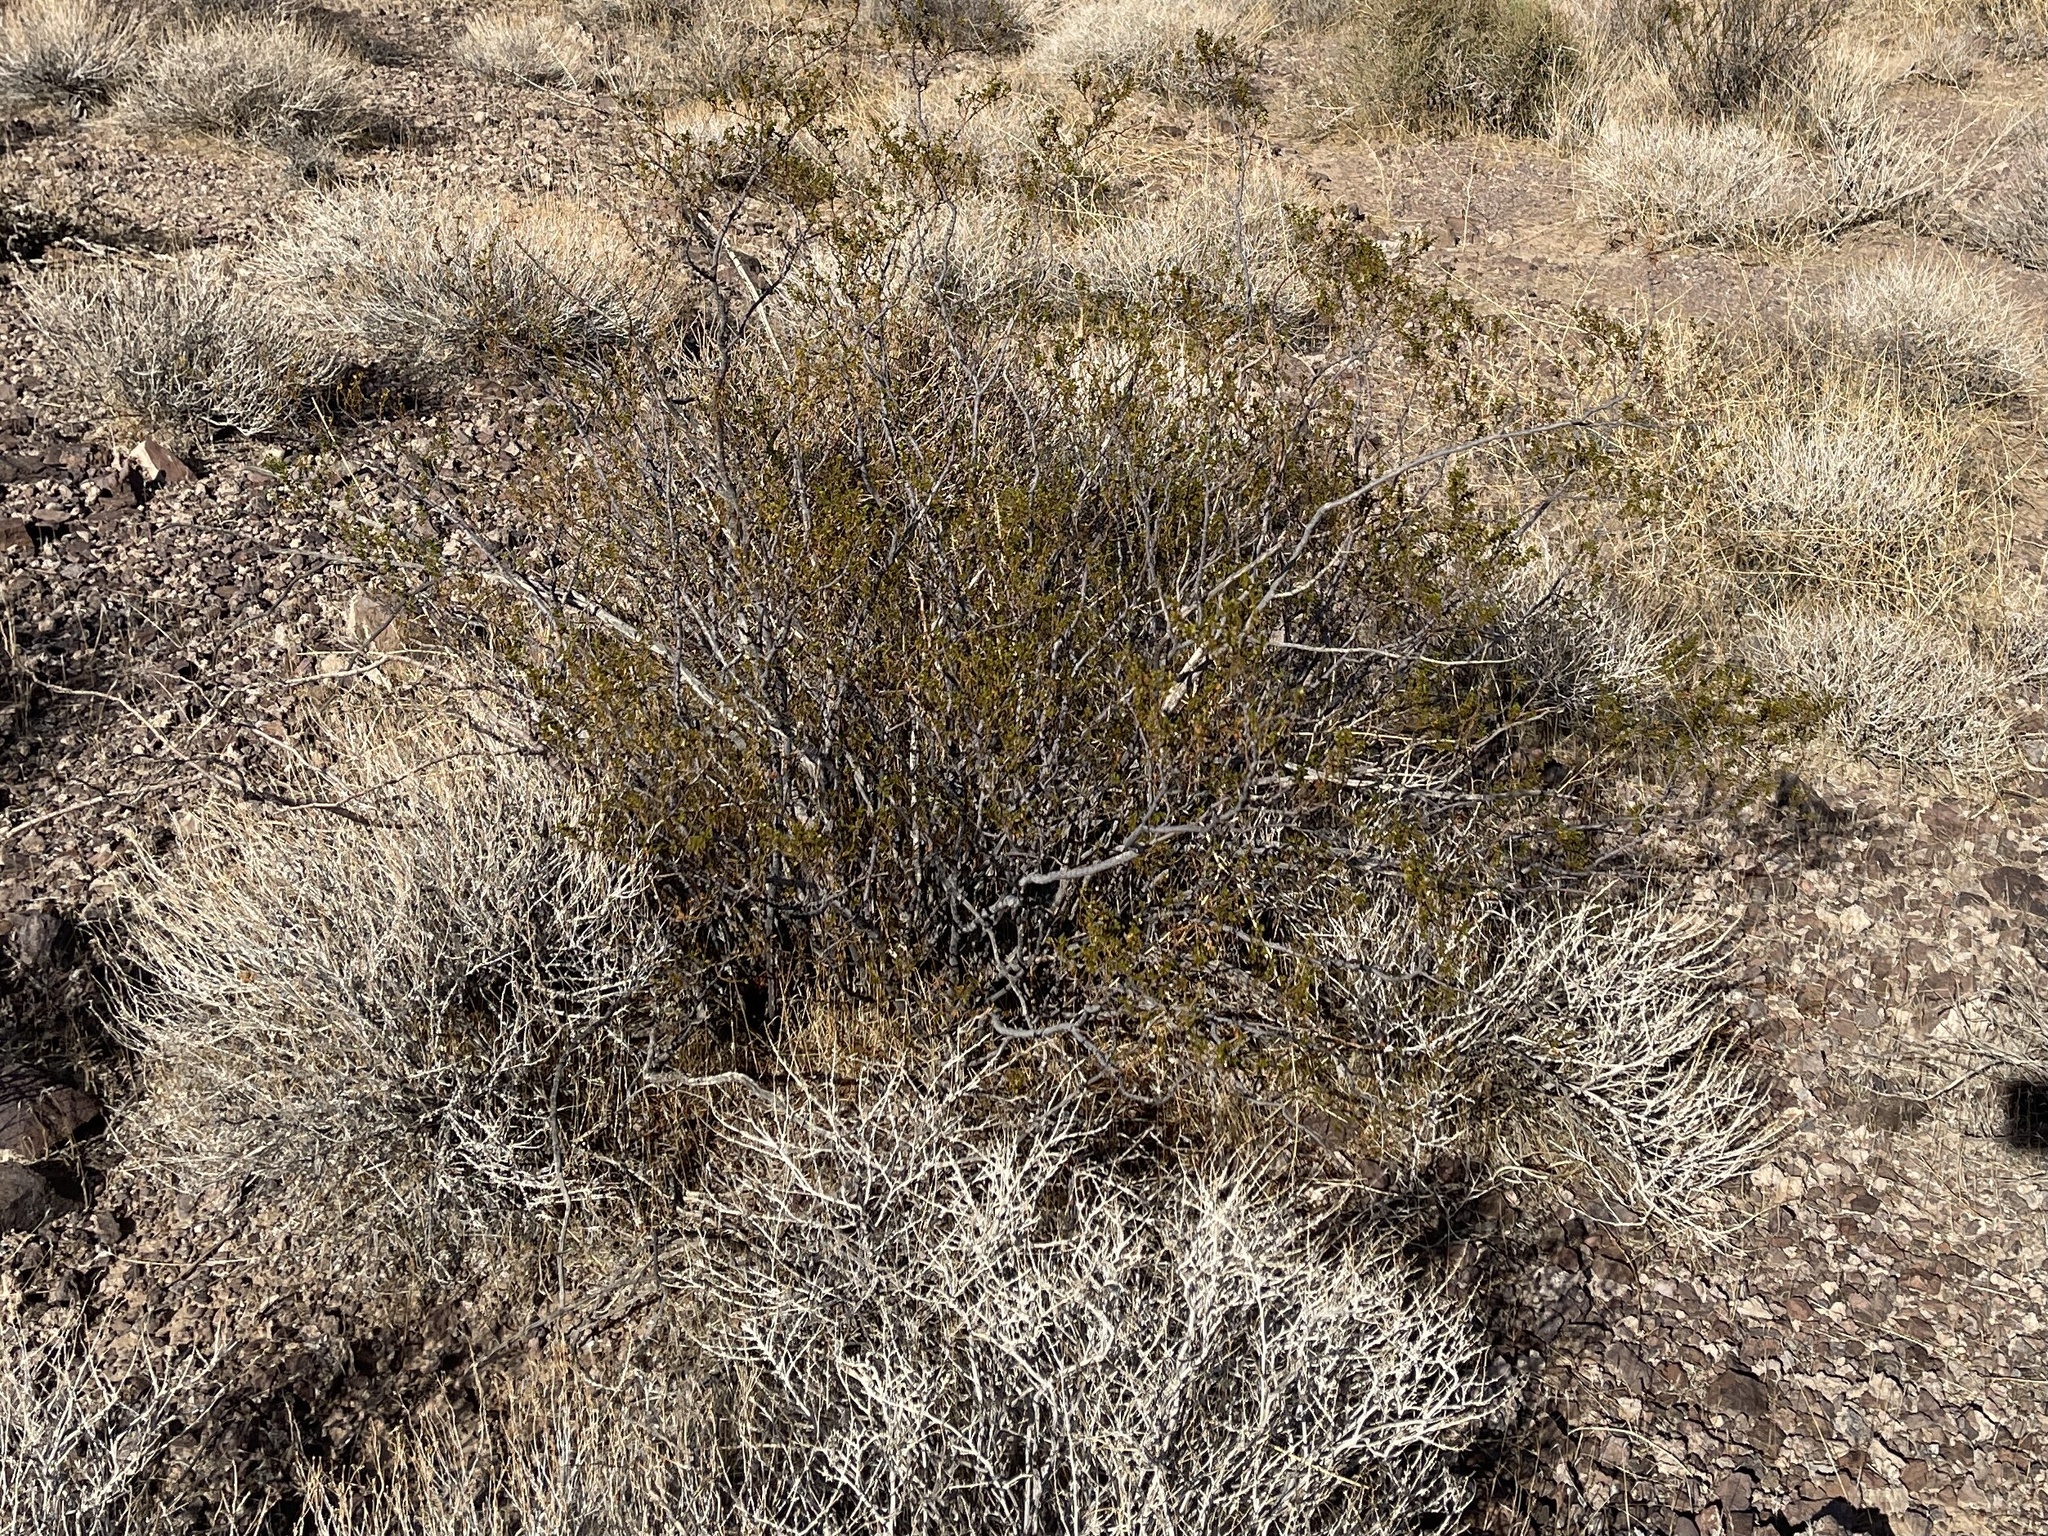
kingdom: Plantae
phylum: Tracheophyta
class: Magnoliopsida
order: Zygophyllales
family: Zygophyllaceae
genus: Larrea
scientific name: Larrea tridentata
